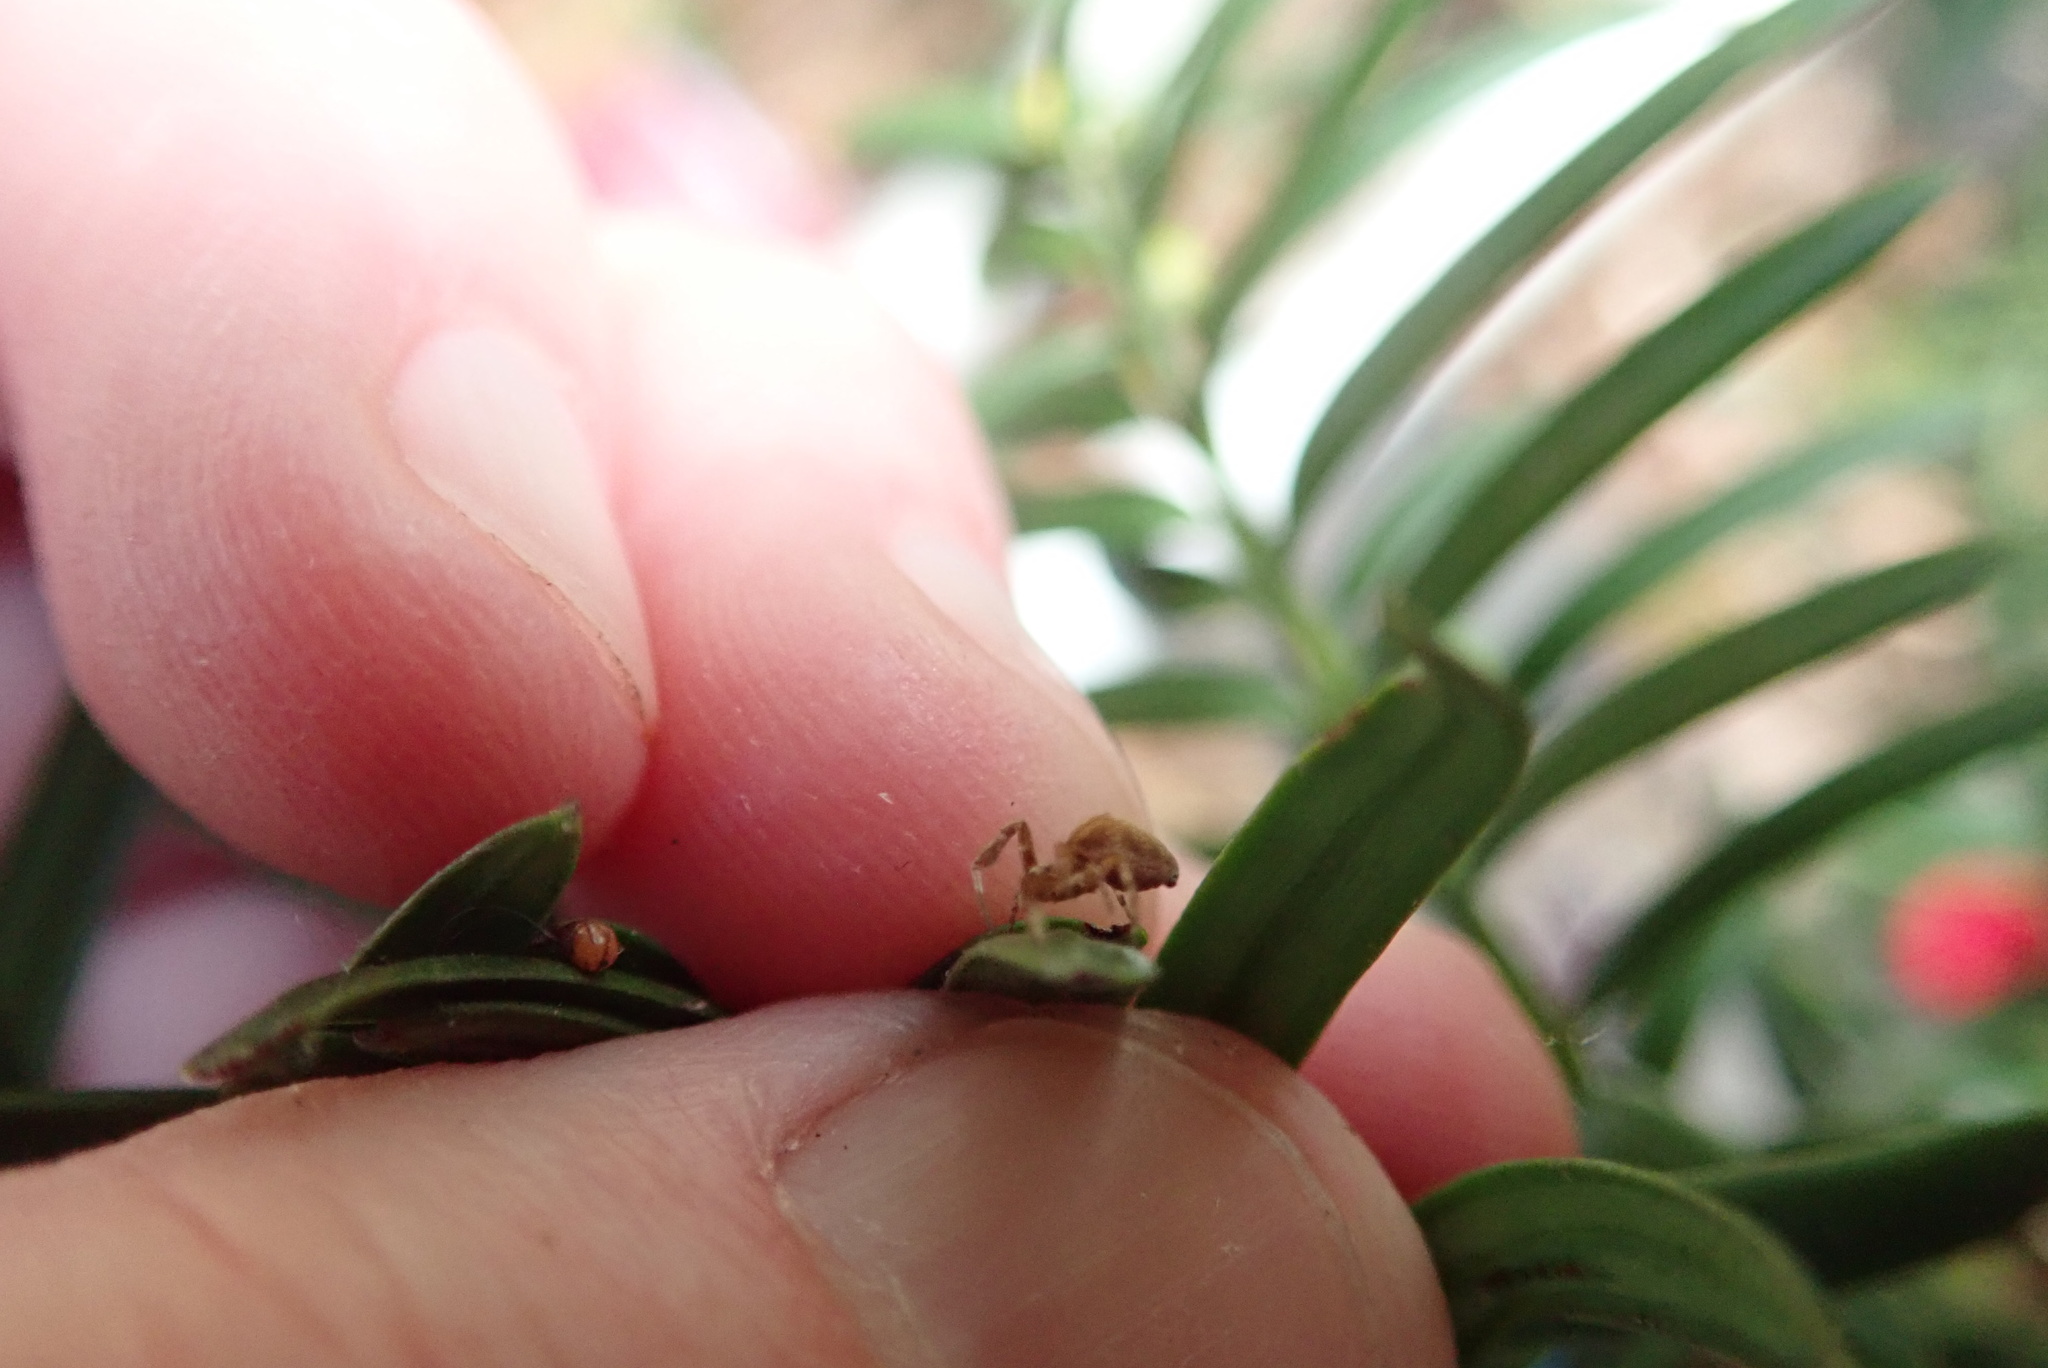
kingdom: Animalia
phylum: Arthropoda
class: Arachnida
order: Araneae
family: Uloboridae
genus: Uloborus
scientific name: Uloborus glomosus
